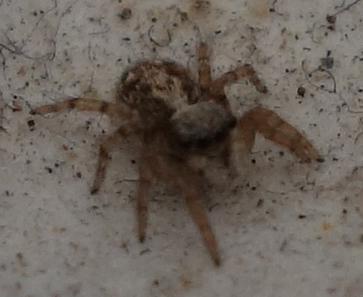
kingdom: Animalia
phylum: Arthropoda
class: Arachnida
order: Araneae
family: Salticidae
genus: Pseudeuophrys
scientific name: Pseudeuophrys lanigera
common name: Jumping spider
